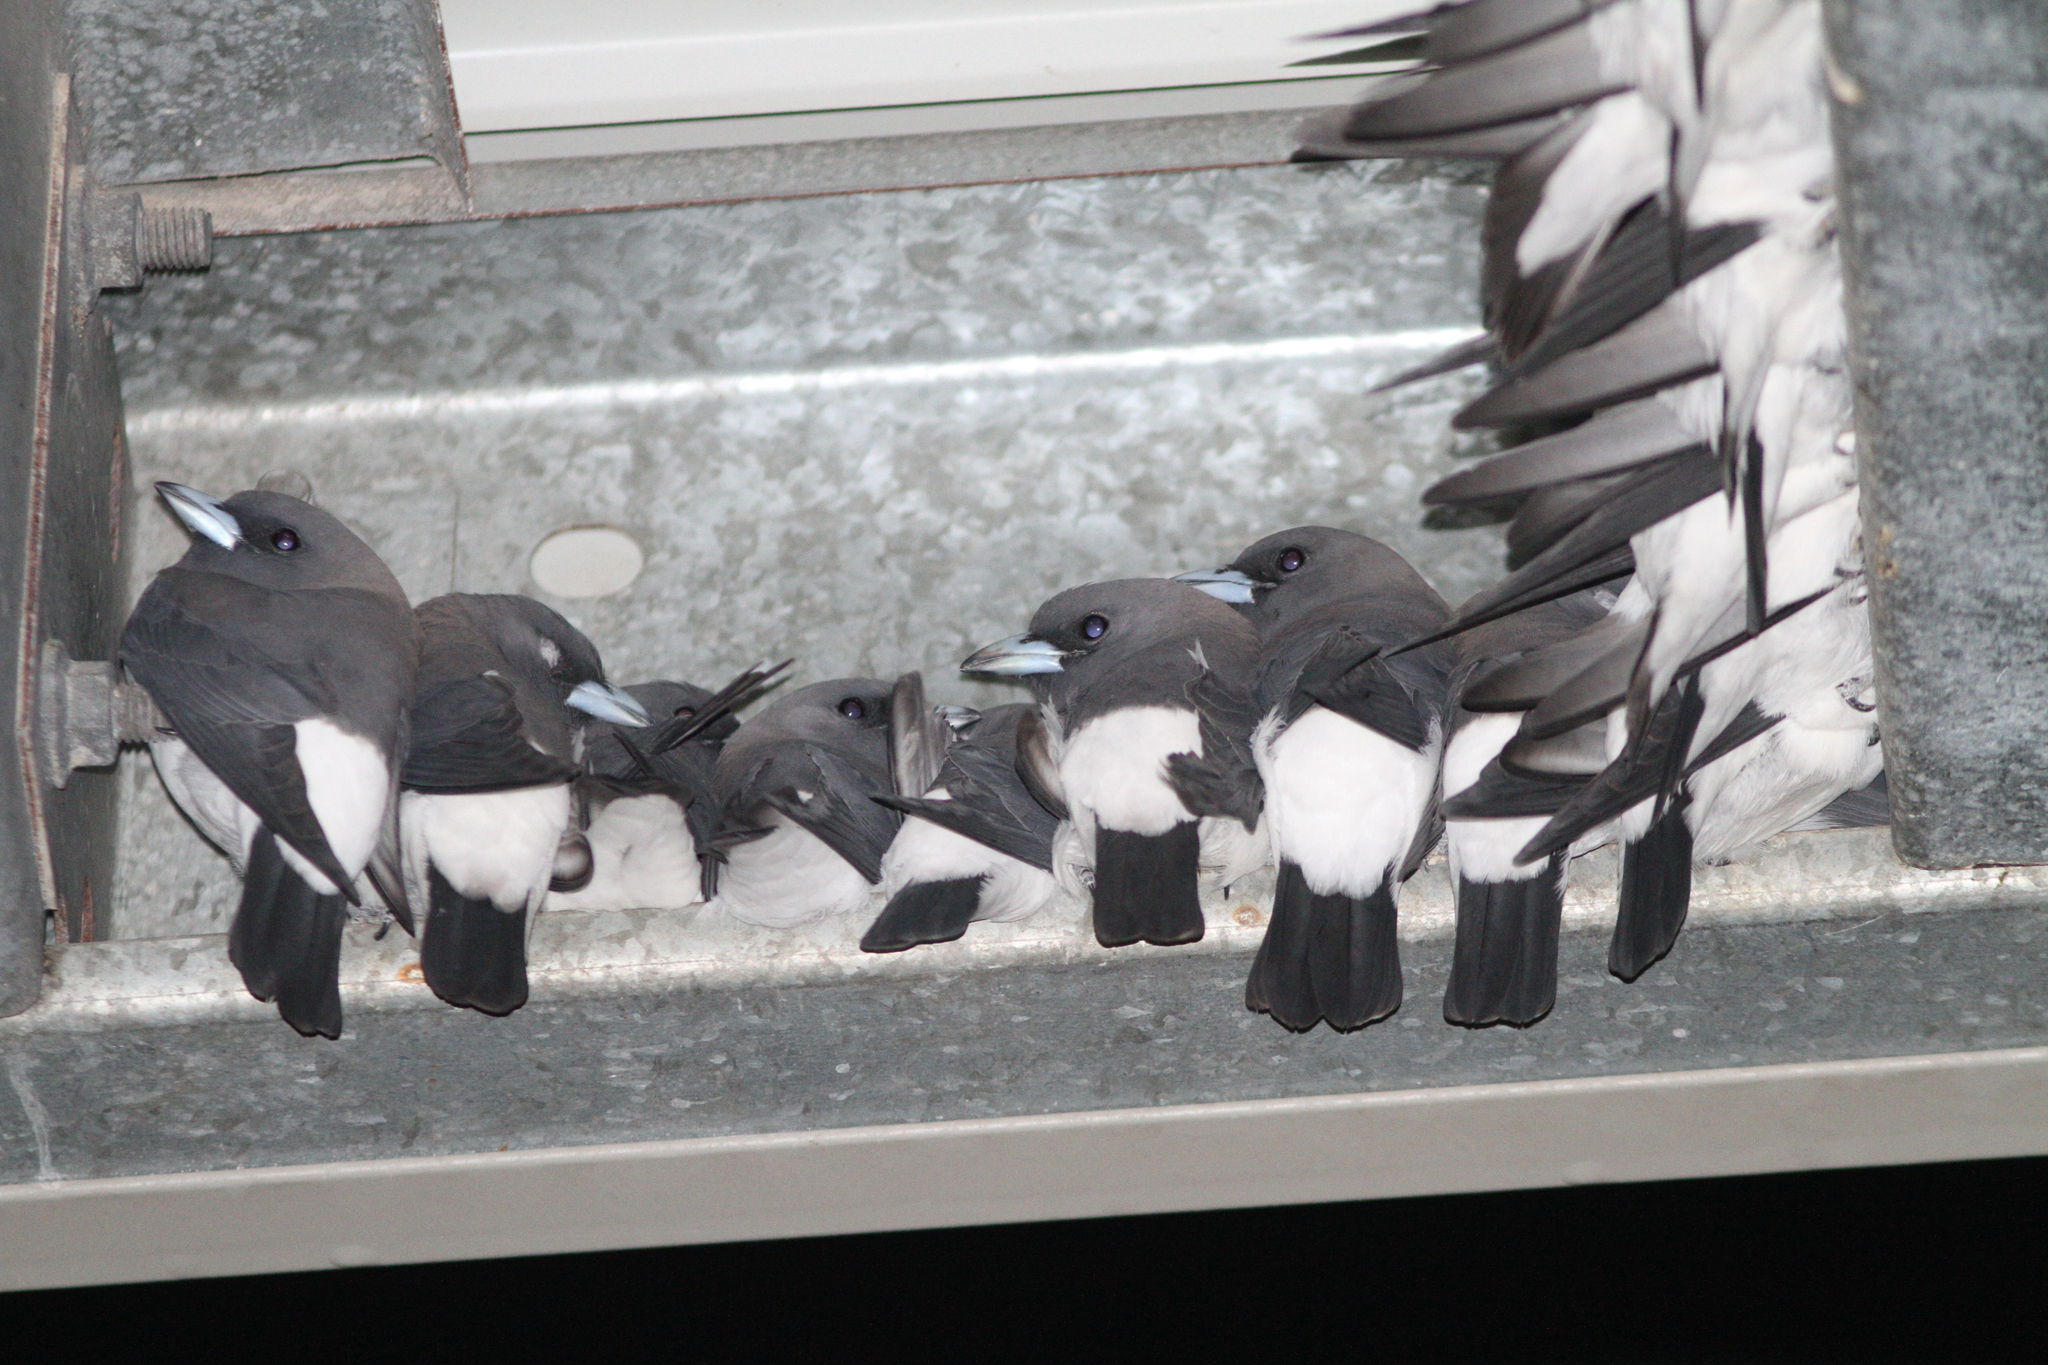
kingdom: Animalia
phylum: Chordata
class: Aves
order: Passeriformes
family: Artamidae
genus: Artamus
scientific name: Artamus leucoryn
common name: White-breasted woodswallow
